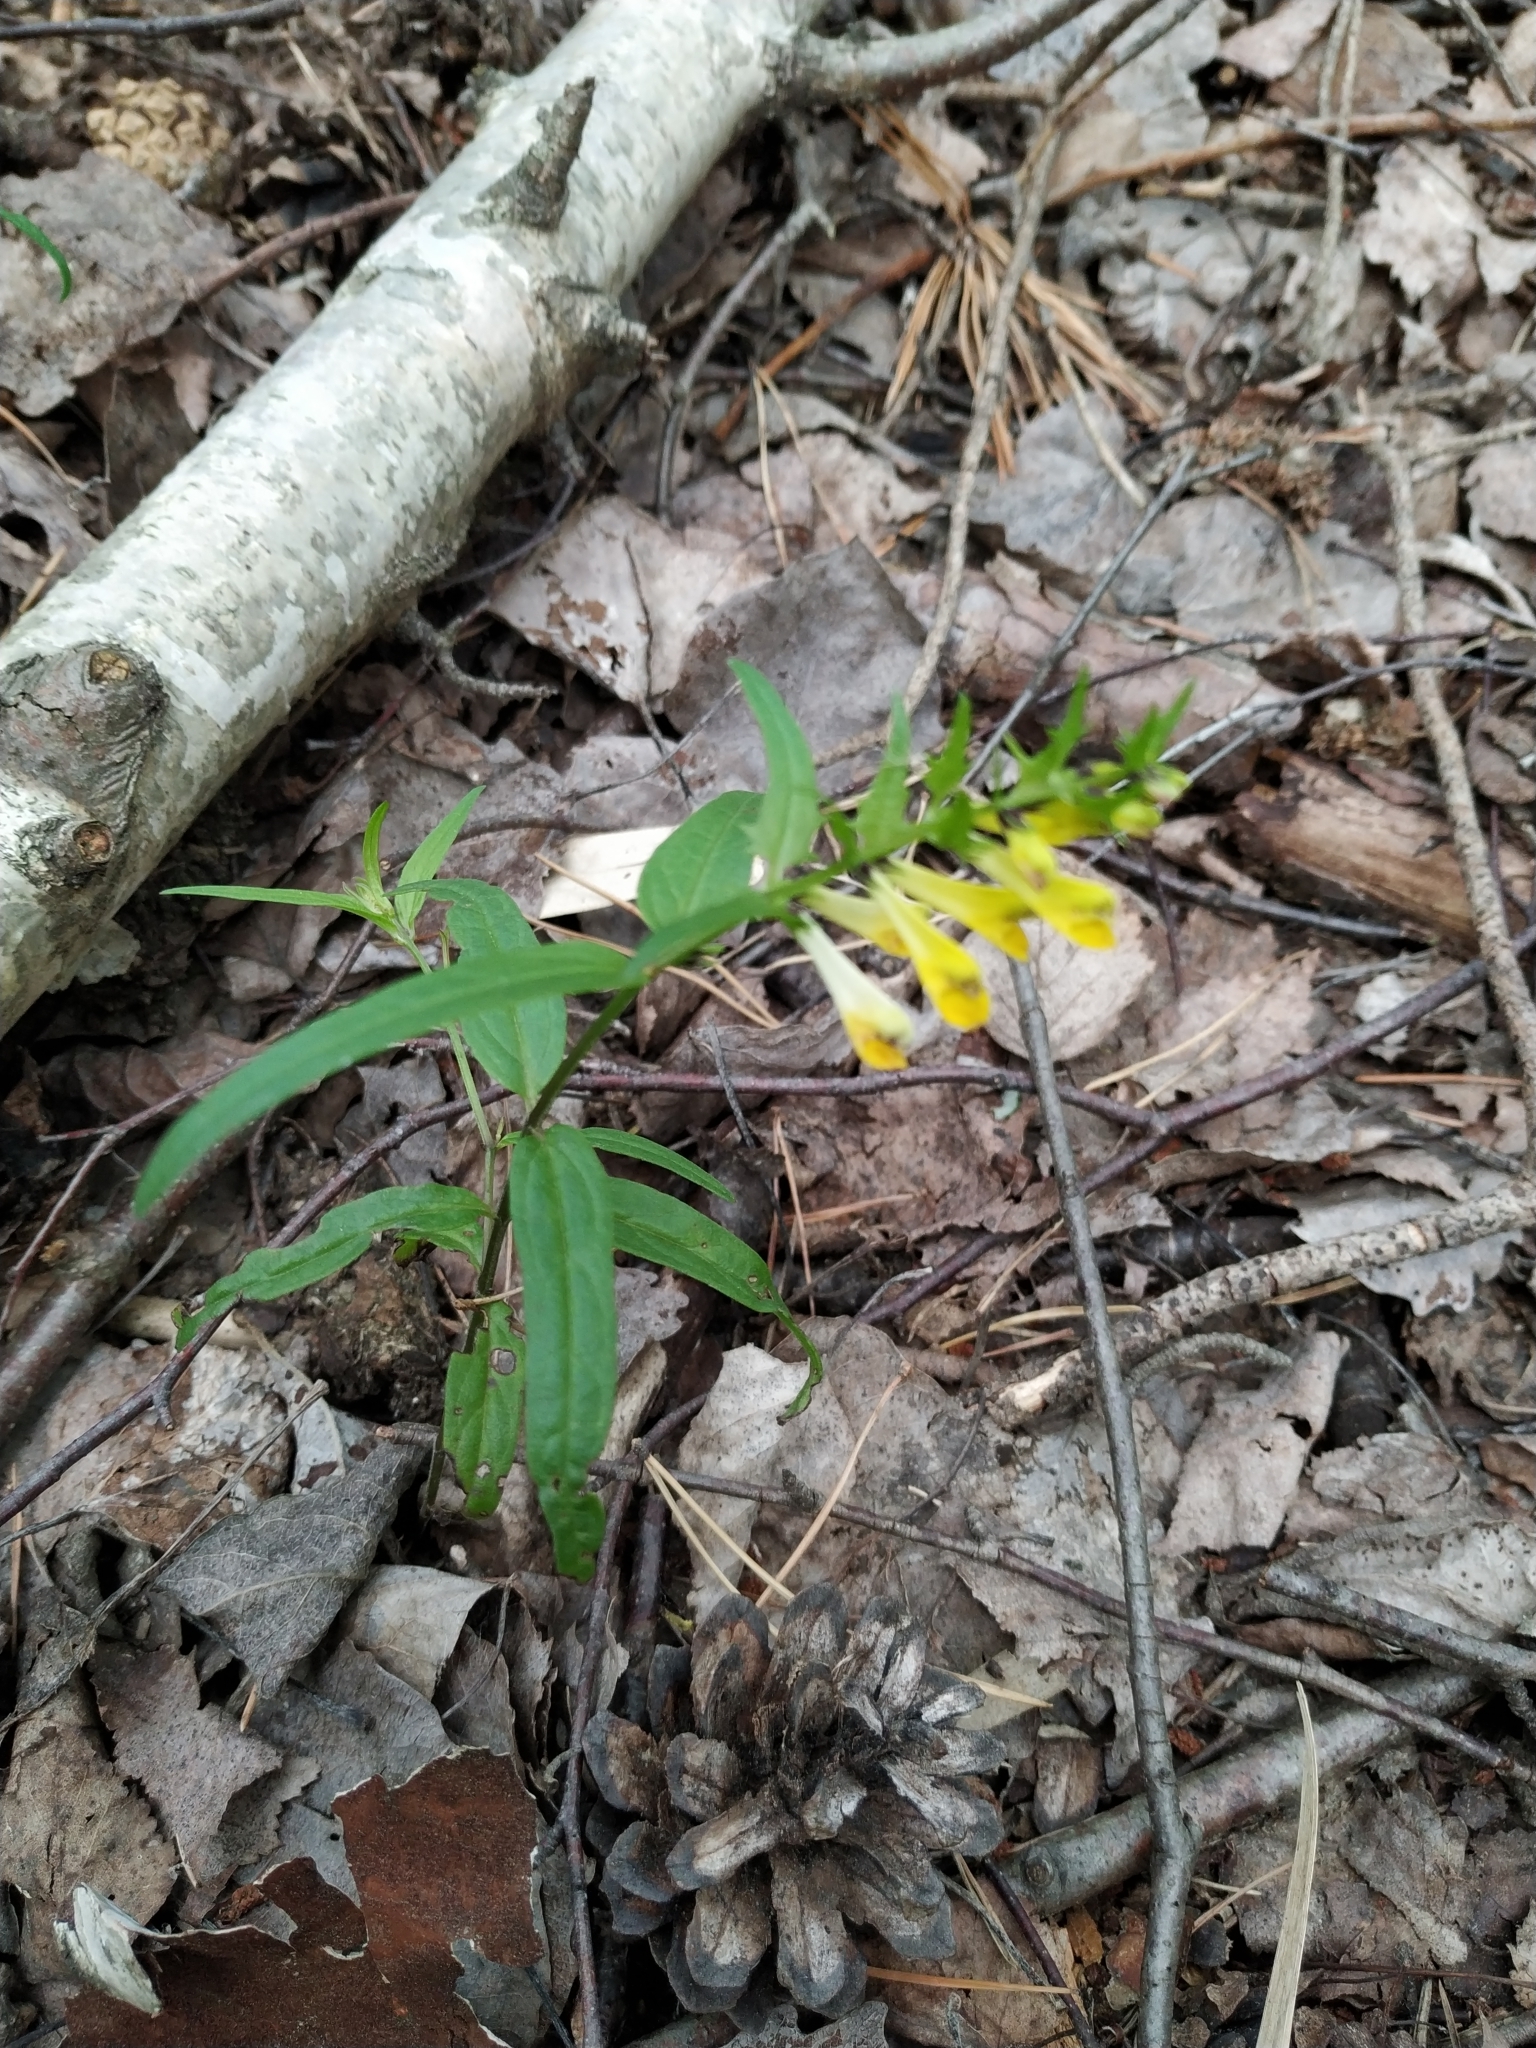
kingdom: Plantae
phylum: Tracheophyta
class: Magnoliopsida
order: Lamiales
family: Orobanchaceae
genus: Melampyrum
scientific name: Melampyrum pratense
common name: Common cow-wheat
